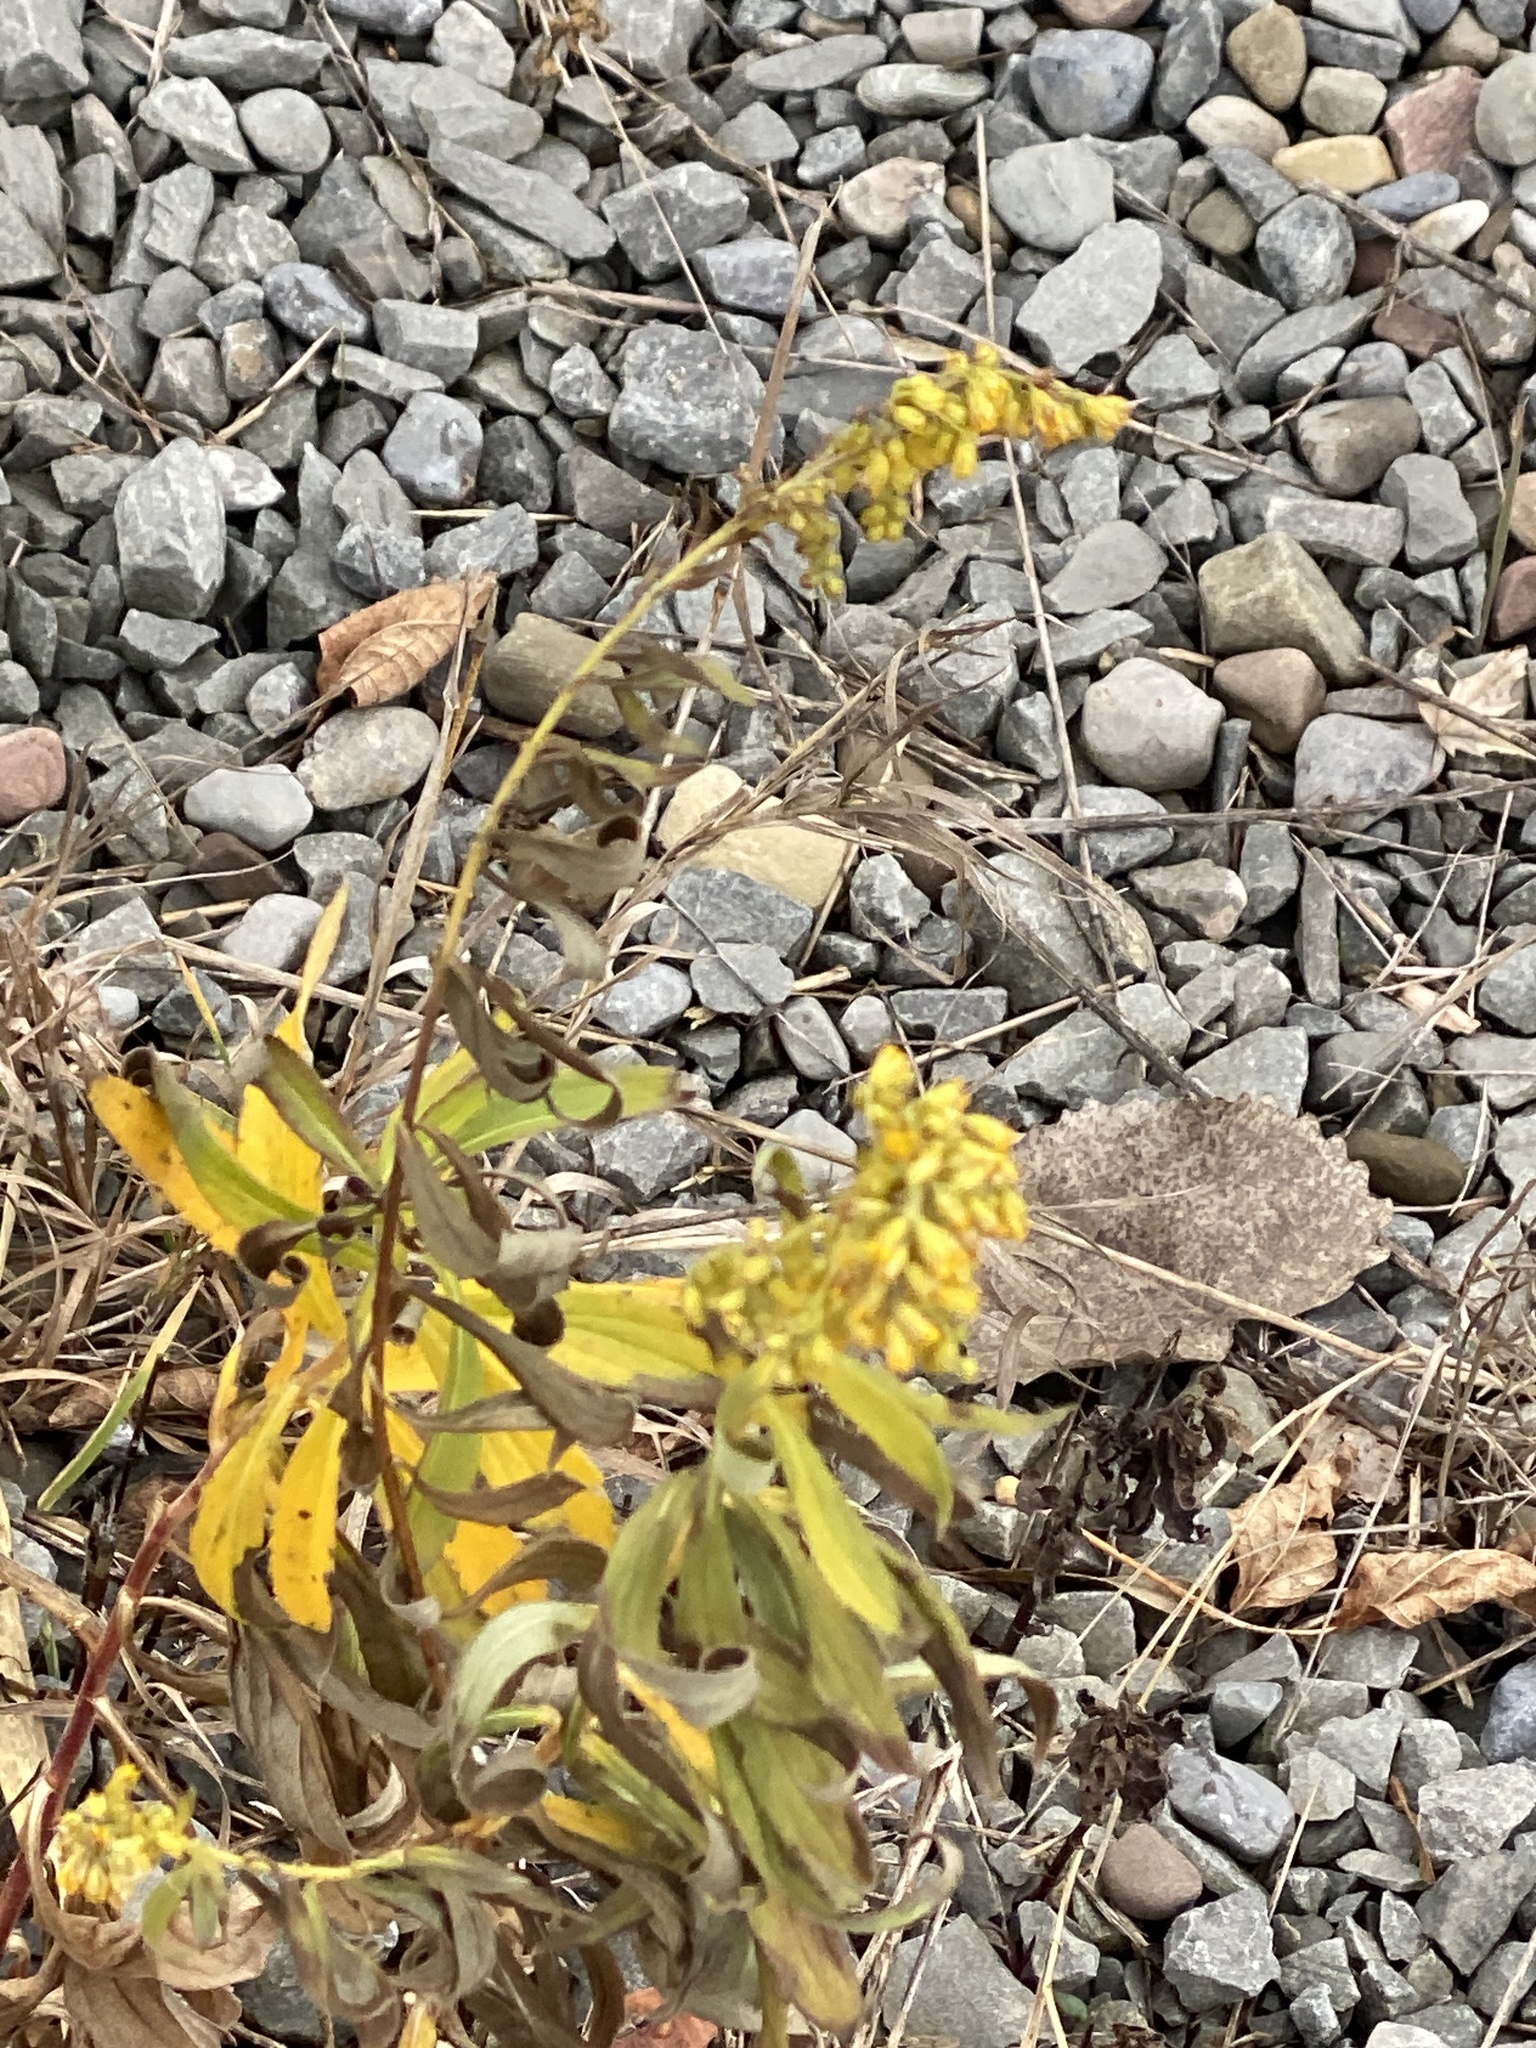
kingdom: Plantae
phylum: Tracheophyta
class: Magnoliopsida
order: Asterales
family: Asteraceae
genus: Solidago
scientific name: Solidago altissima
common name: Late goldenrod
